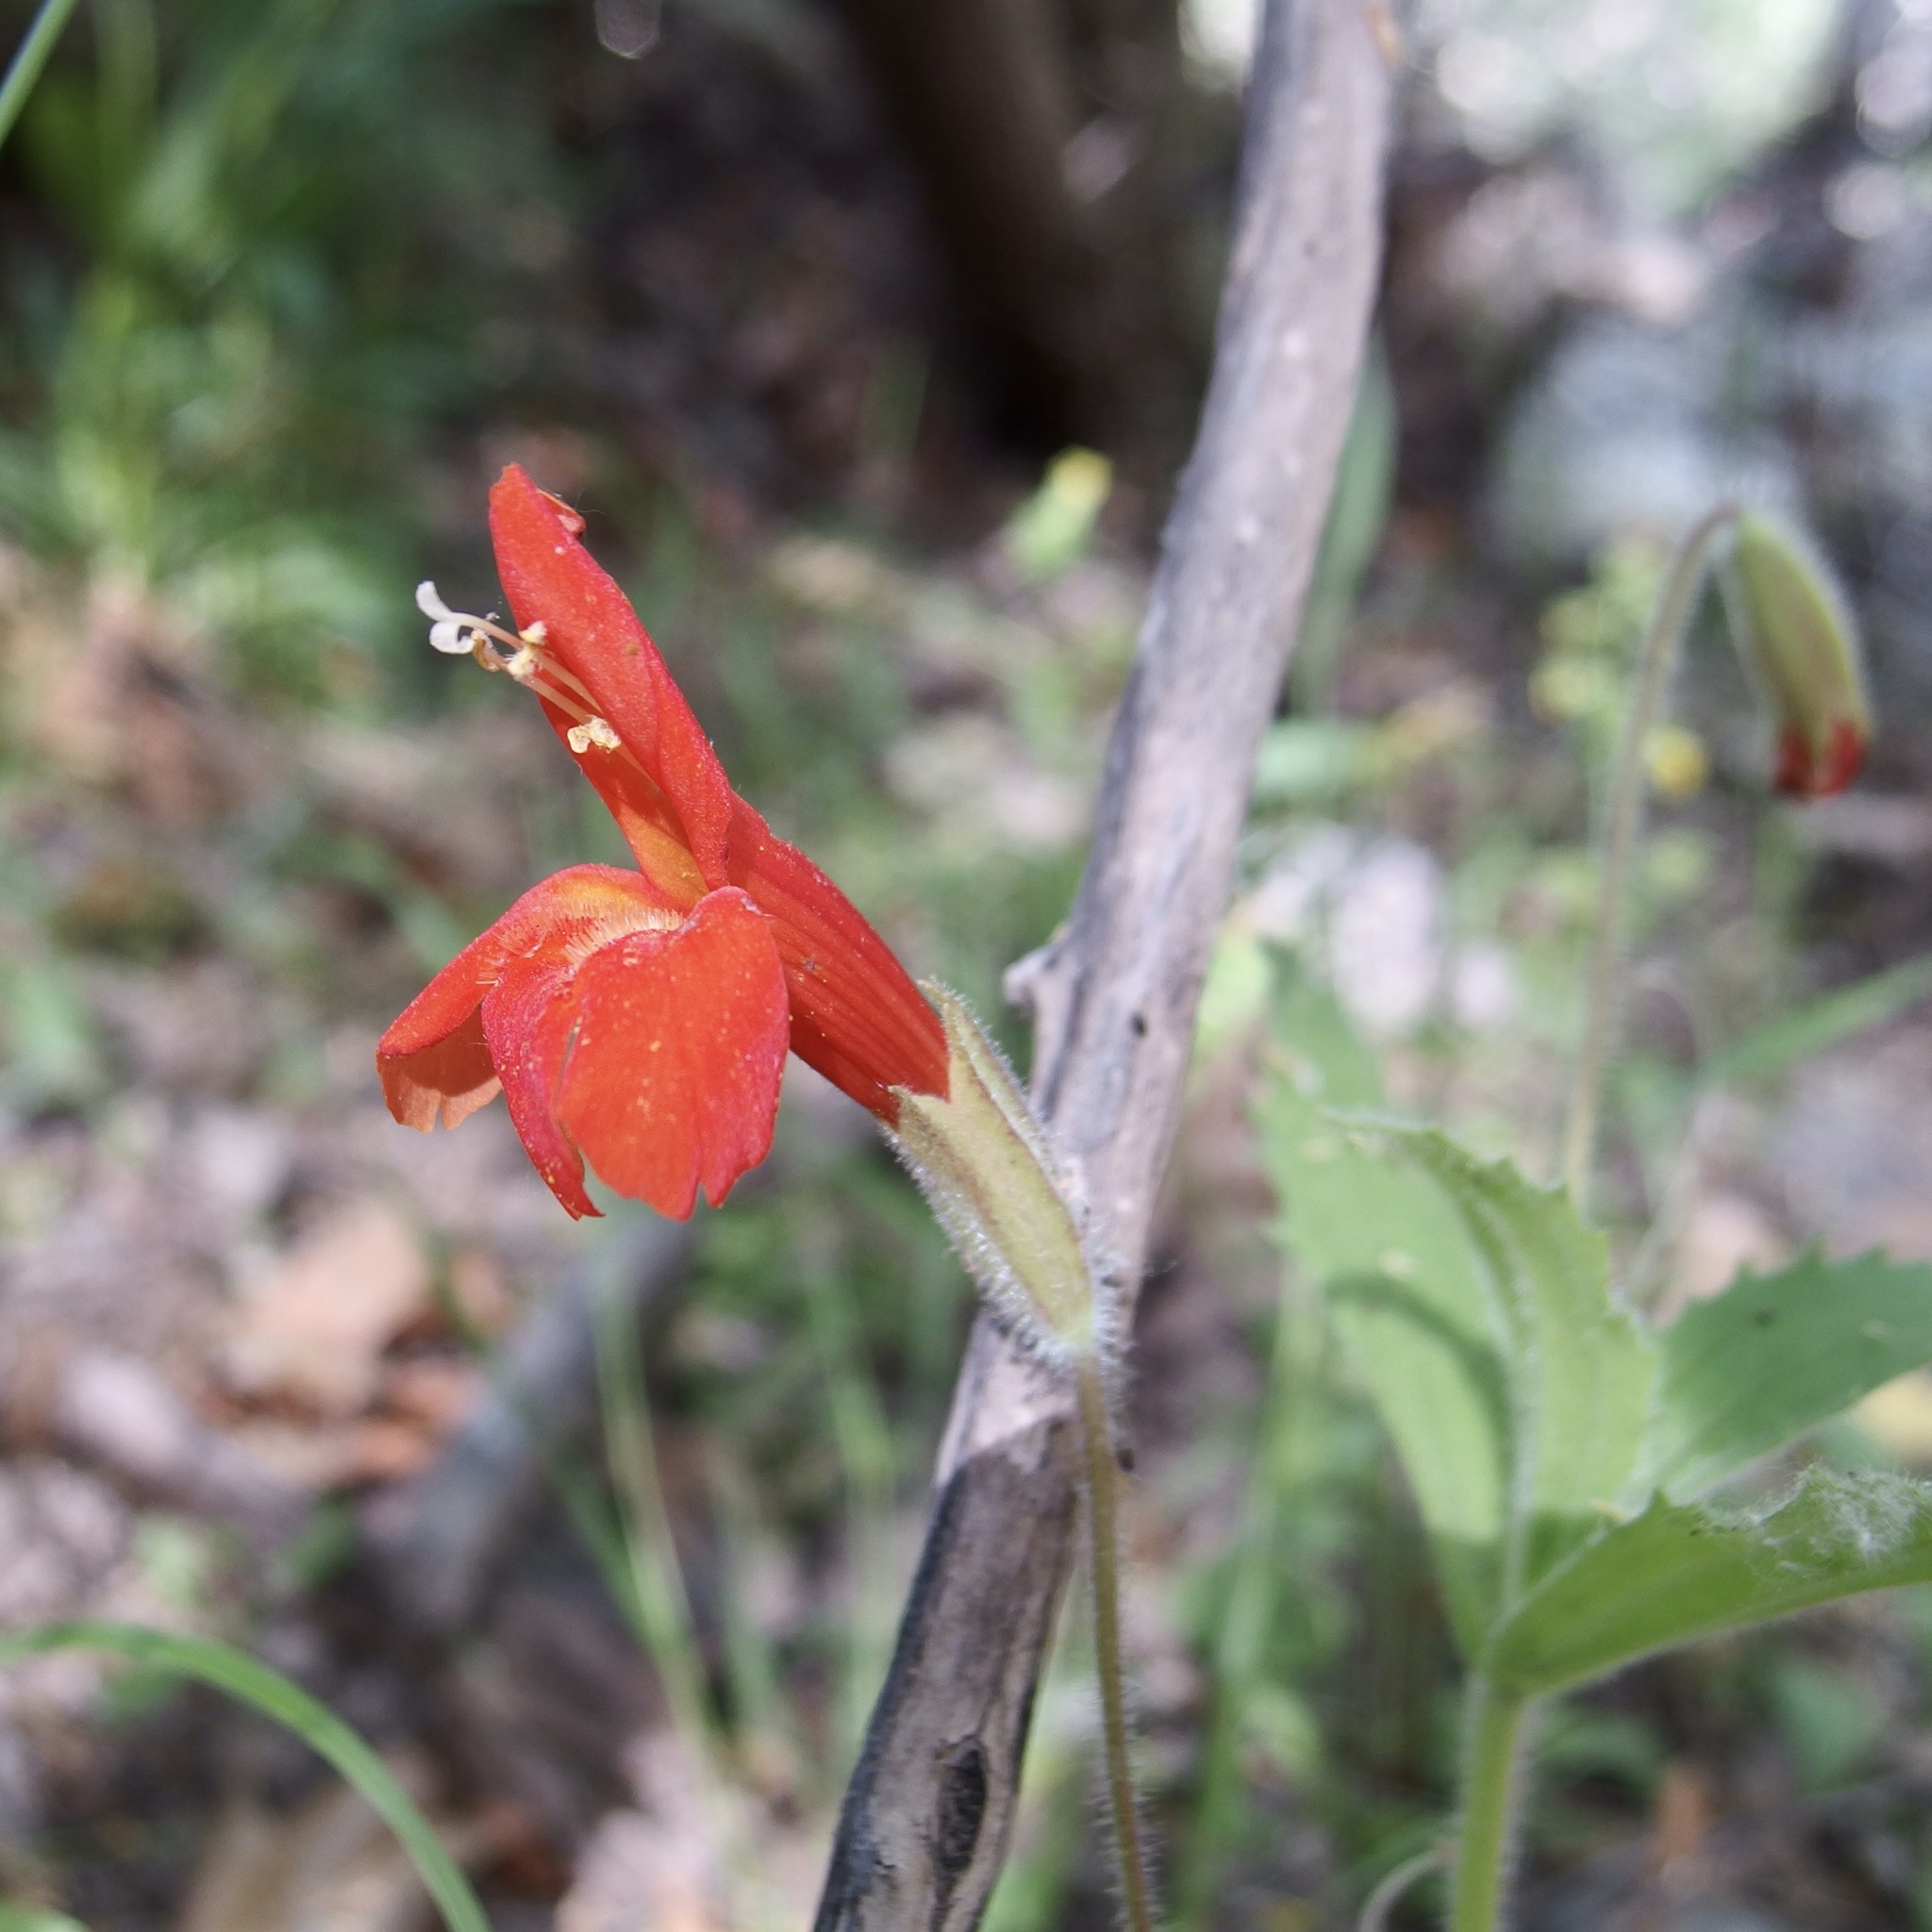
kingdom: Plantae
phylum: Tracheophyta
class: Magnoliopsida
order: Lamiales
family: Phrymaceae
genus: Erythranthe
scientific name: Erythranthe verbenacea
